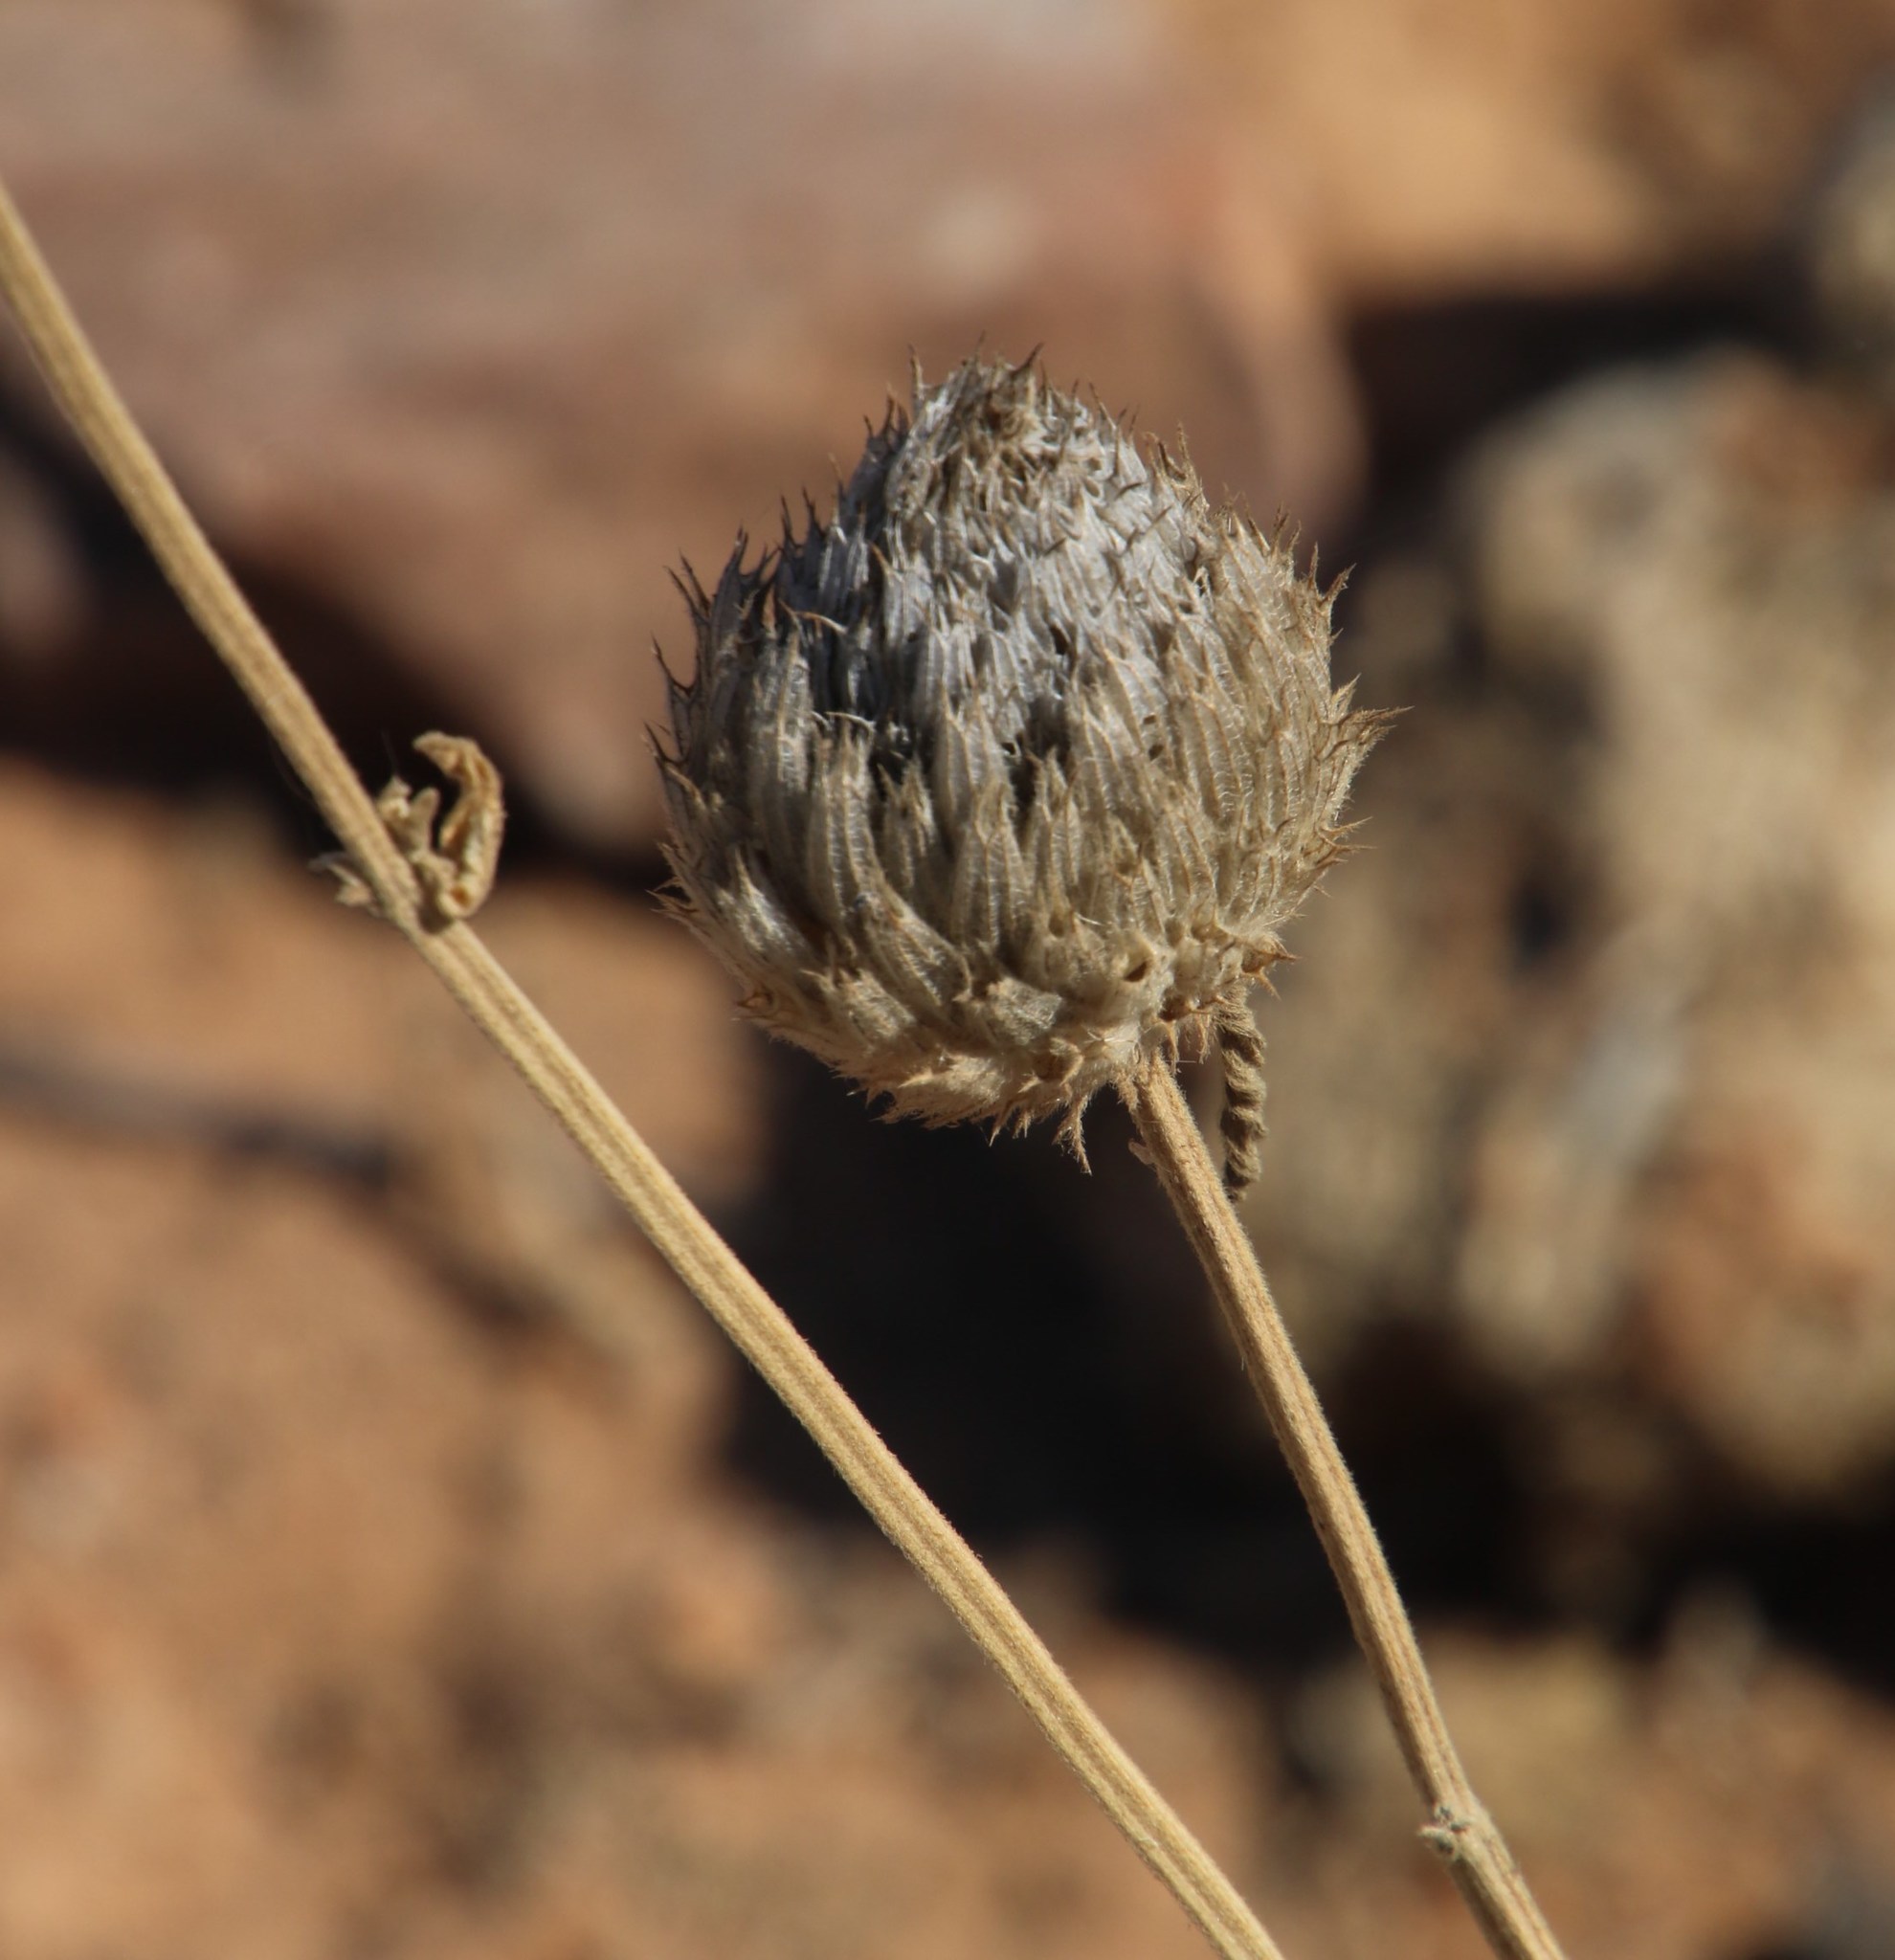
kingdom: Plantae
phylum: Tracheophyta
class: Magnoliopsida
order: Lamiales
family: Lamiaceae
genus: Acrotome
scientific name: Acrotome inflata
